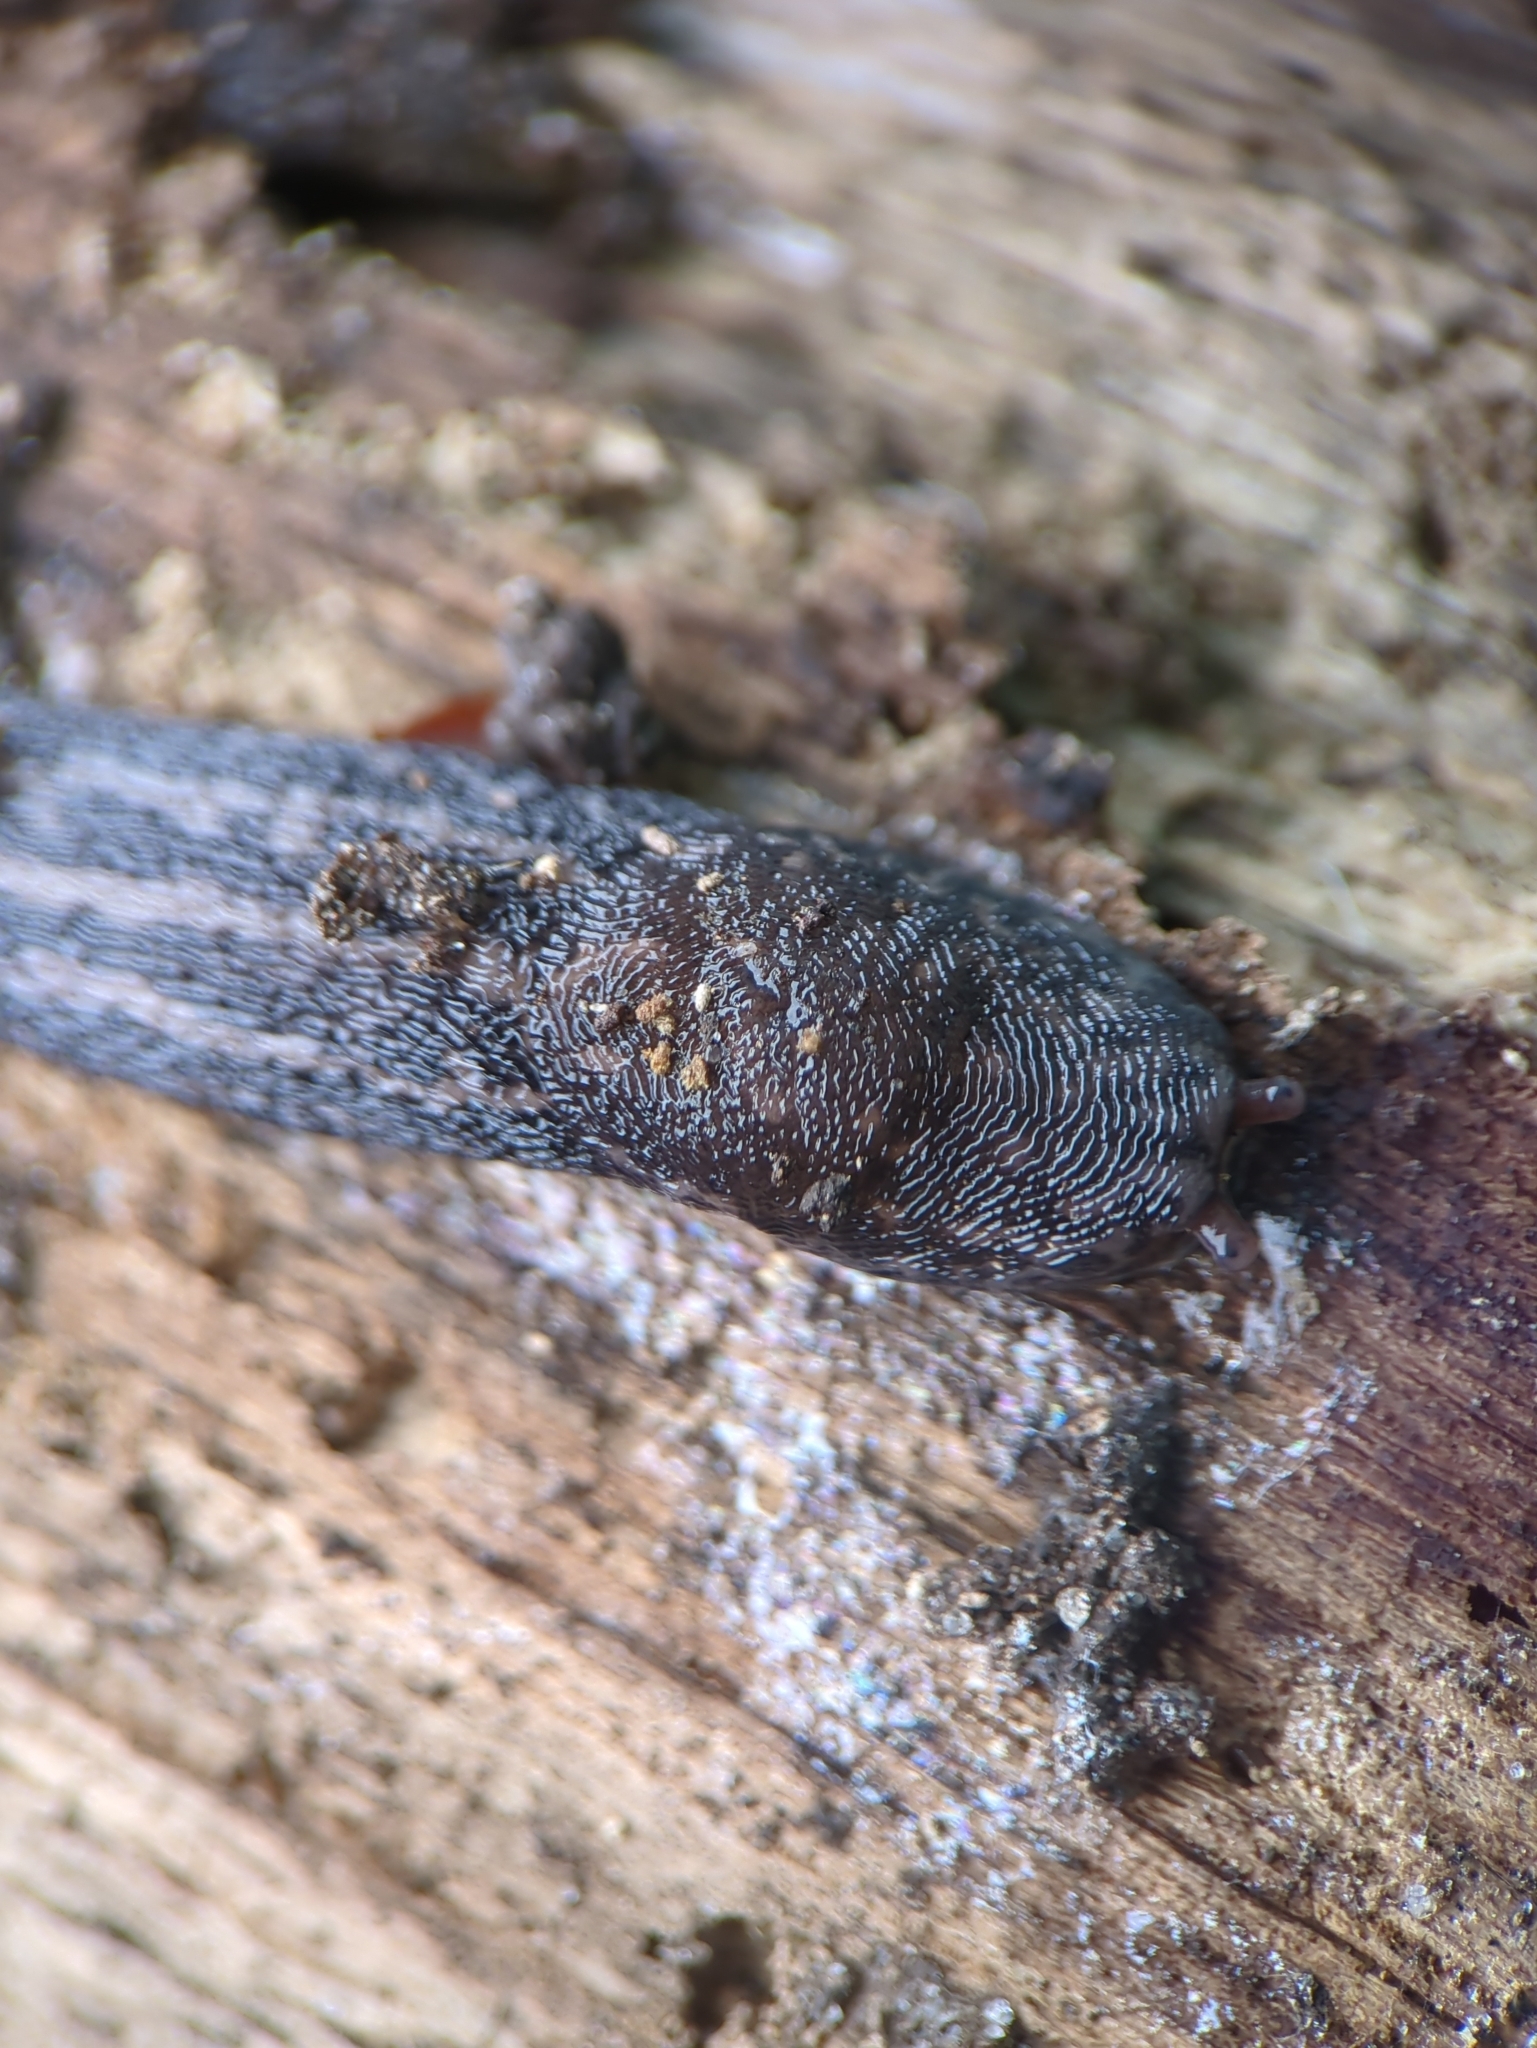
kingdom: Animalia
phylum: Mollusca
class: Gastropoda
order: Stylommatophora
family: Limacidae
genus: Limax
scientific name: Limax maximus
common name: Great grey slug
